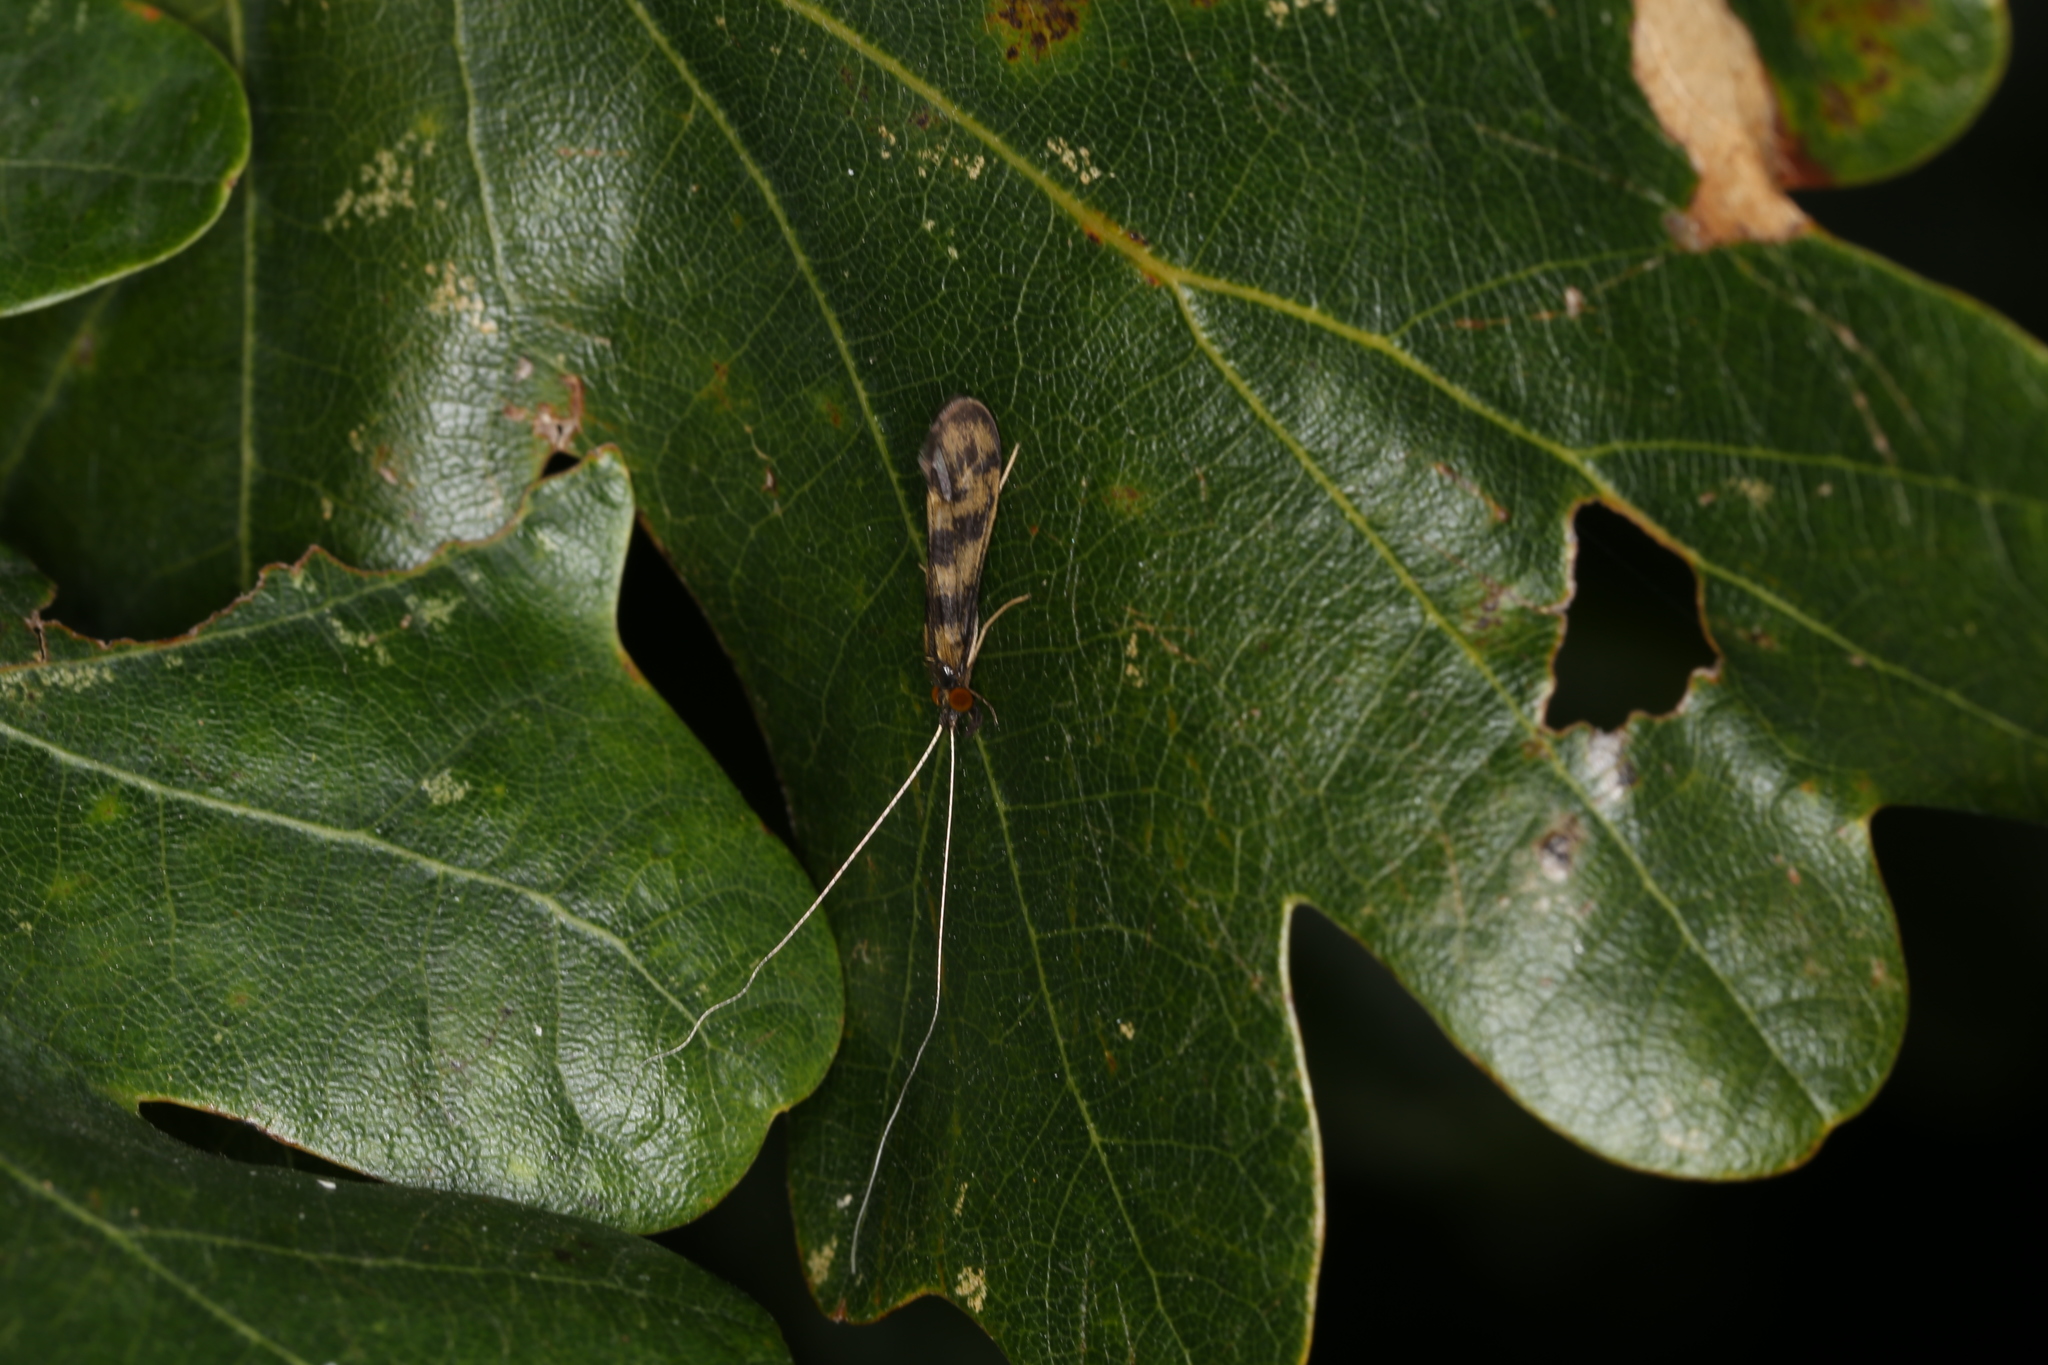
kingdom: Animalia
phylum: Arthropoda
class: Insecta
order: Trichoptera
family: Leptoceridae
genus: Mystacides
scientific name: Mystacides longicornis
